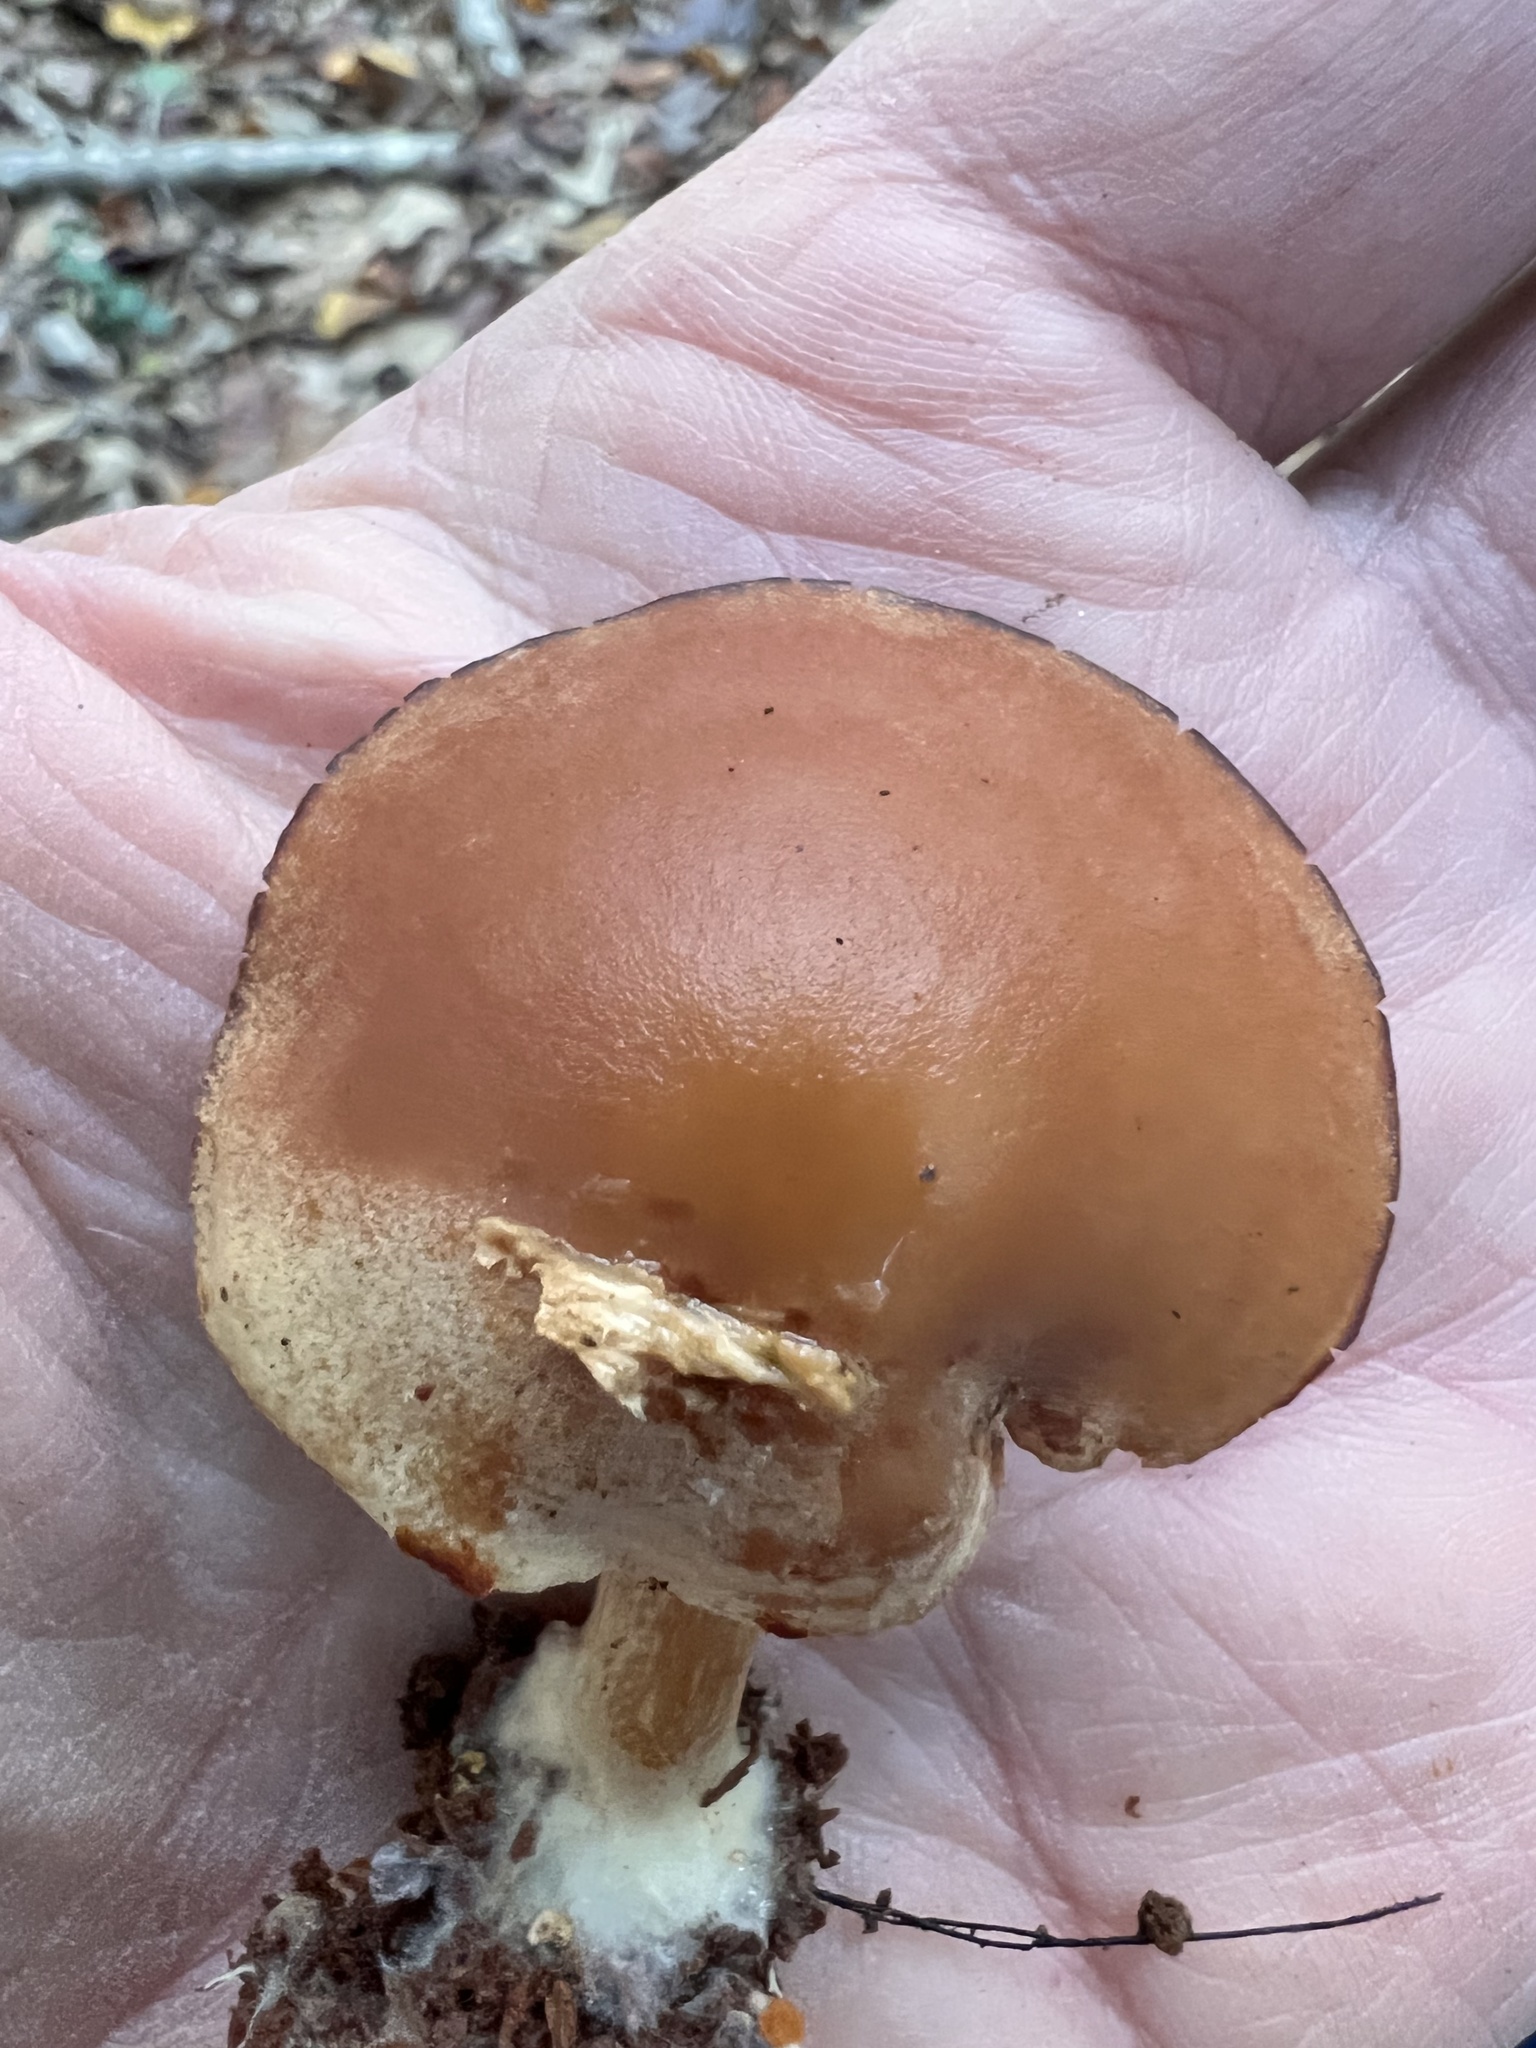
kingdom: Fungi
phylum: Basidiomycota
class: Agaricomycetes
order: Agaricales
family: Callistosporiaceae
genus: Callistosporium
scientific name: Callistosporium purpureomarginatum
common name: Purple-edged lute
